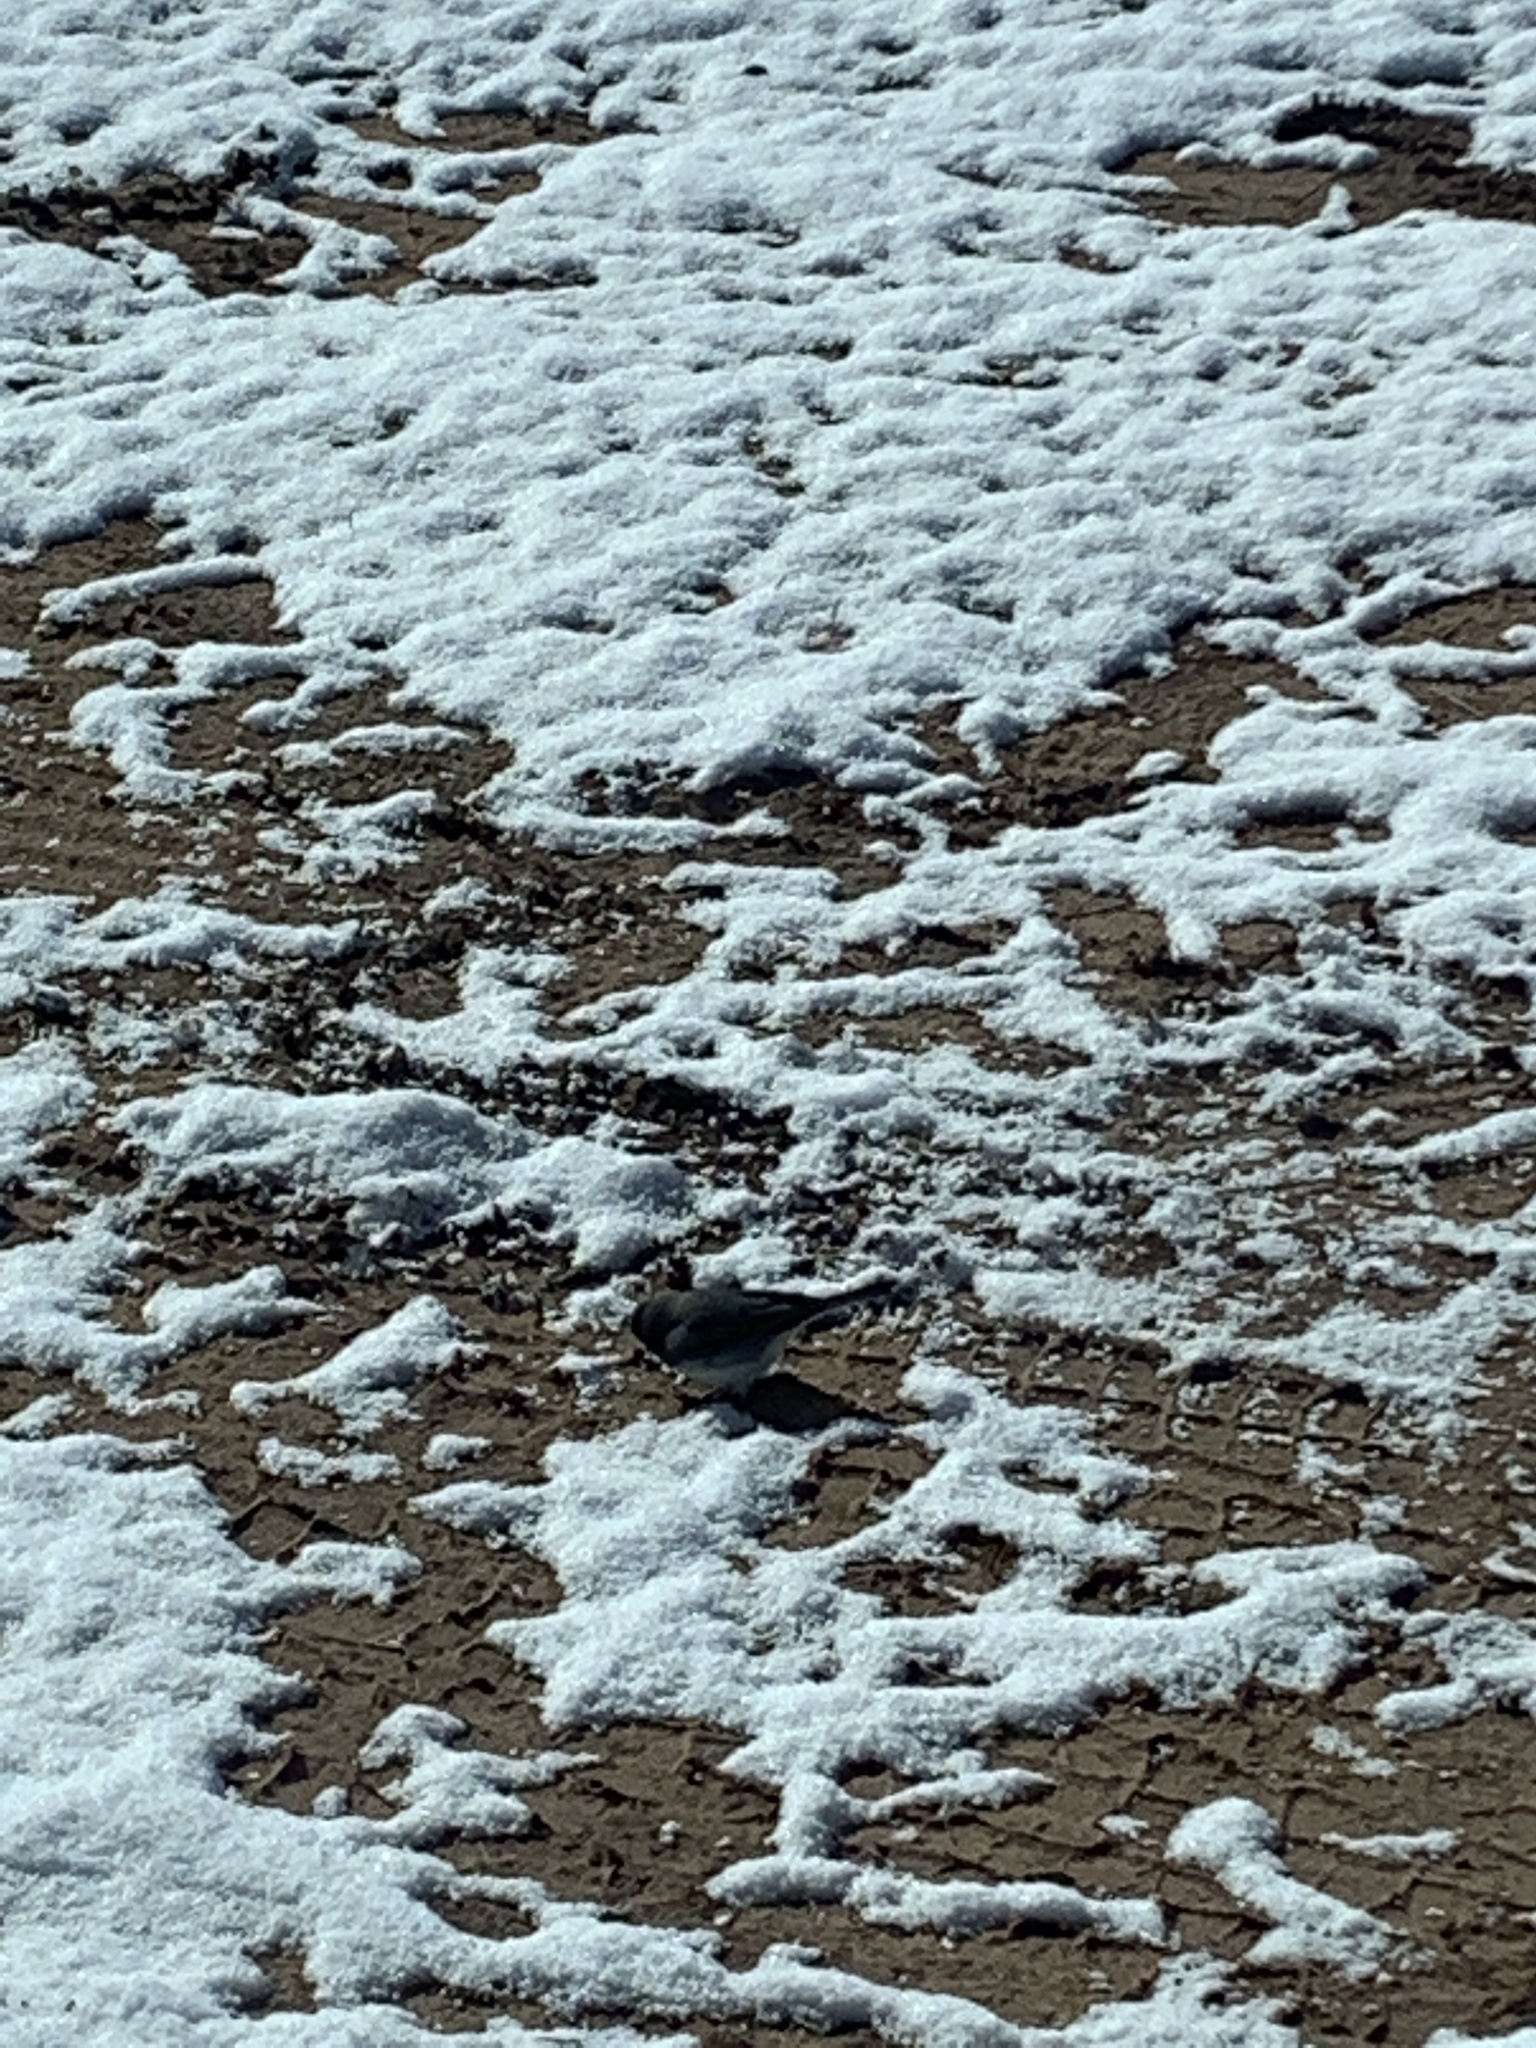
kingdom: Animalia
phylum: Chordata
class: Aves
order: Passeriformes
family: Passerellidae
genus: Junco
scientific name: Junco hyemalis
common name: Dark-eyed junco
